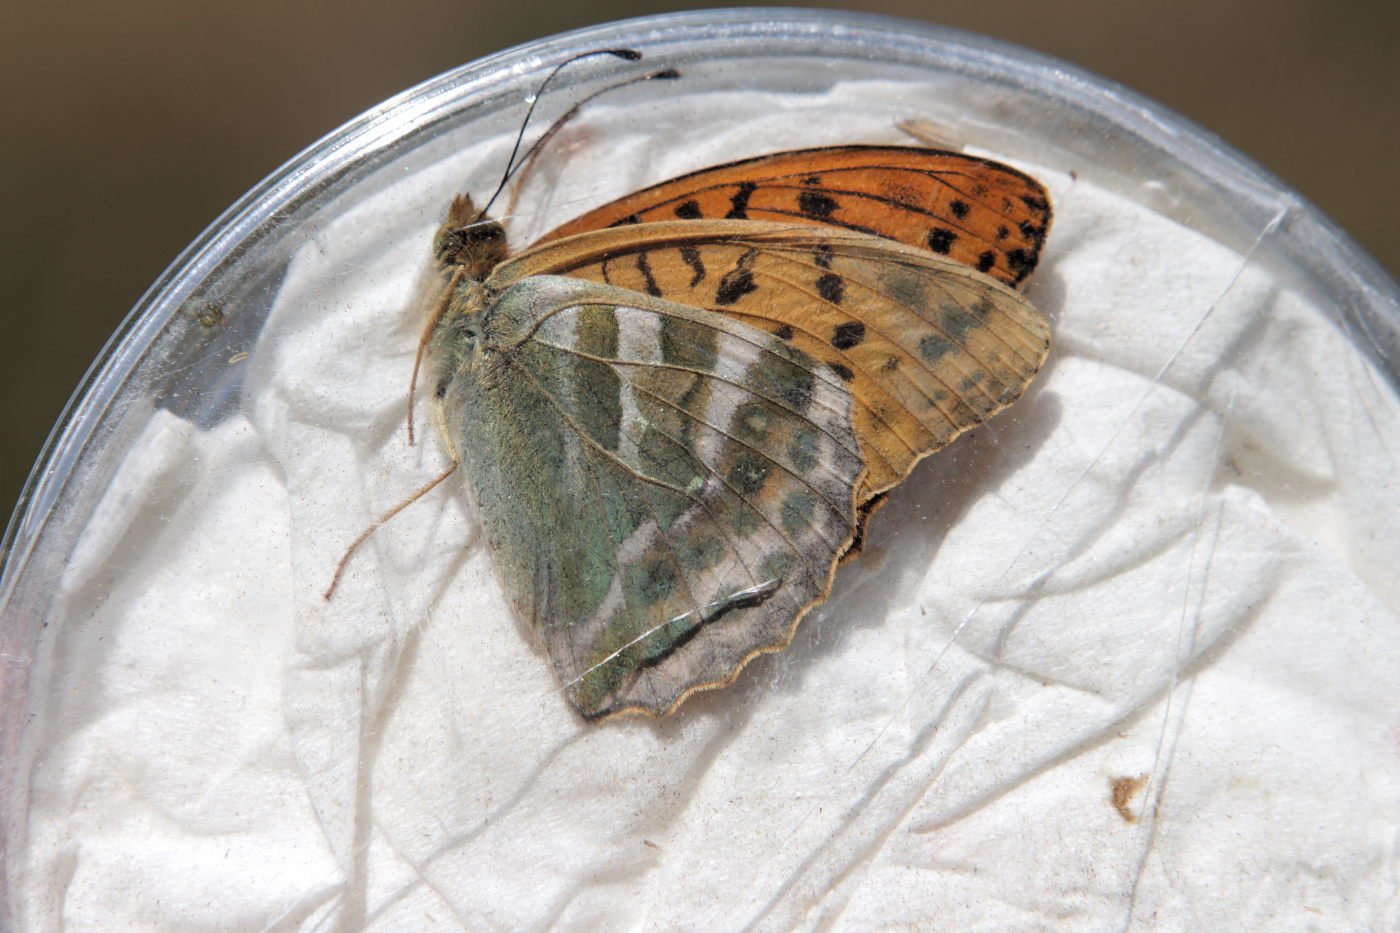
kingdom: Animalia
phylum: Arthropoda
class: Insecta
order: Lepidoptera
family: Nymphalidae
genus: Argynnis
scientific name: Argynnis paphia
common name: Silver-washed fritillary
